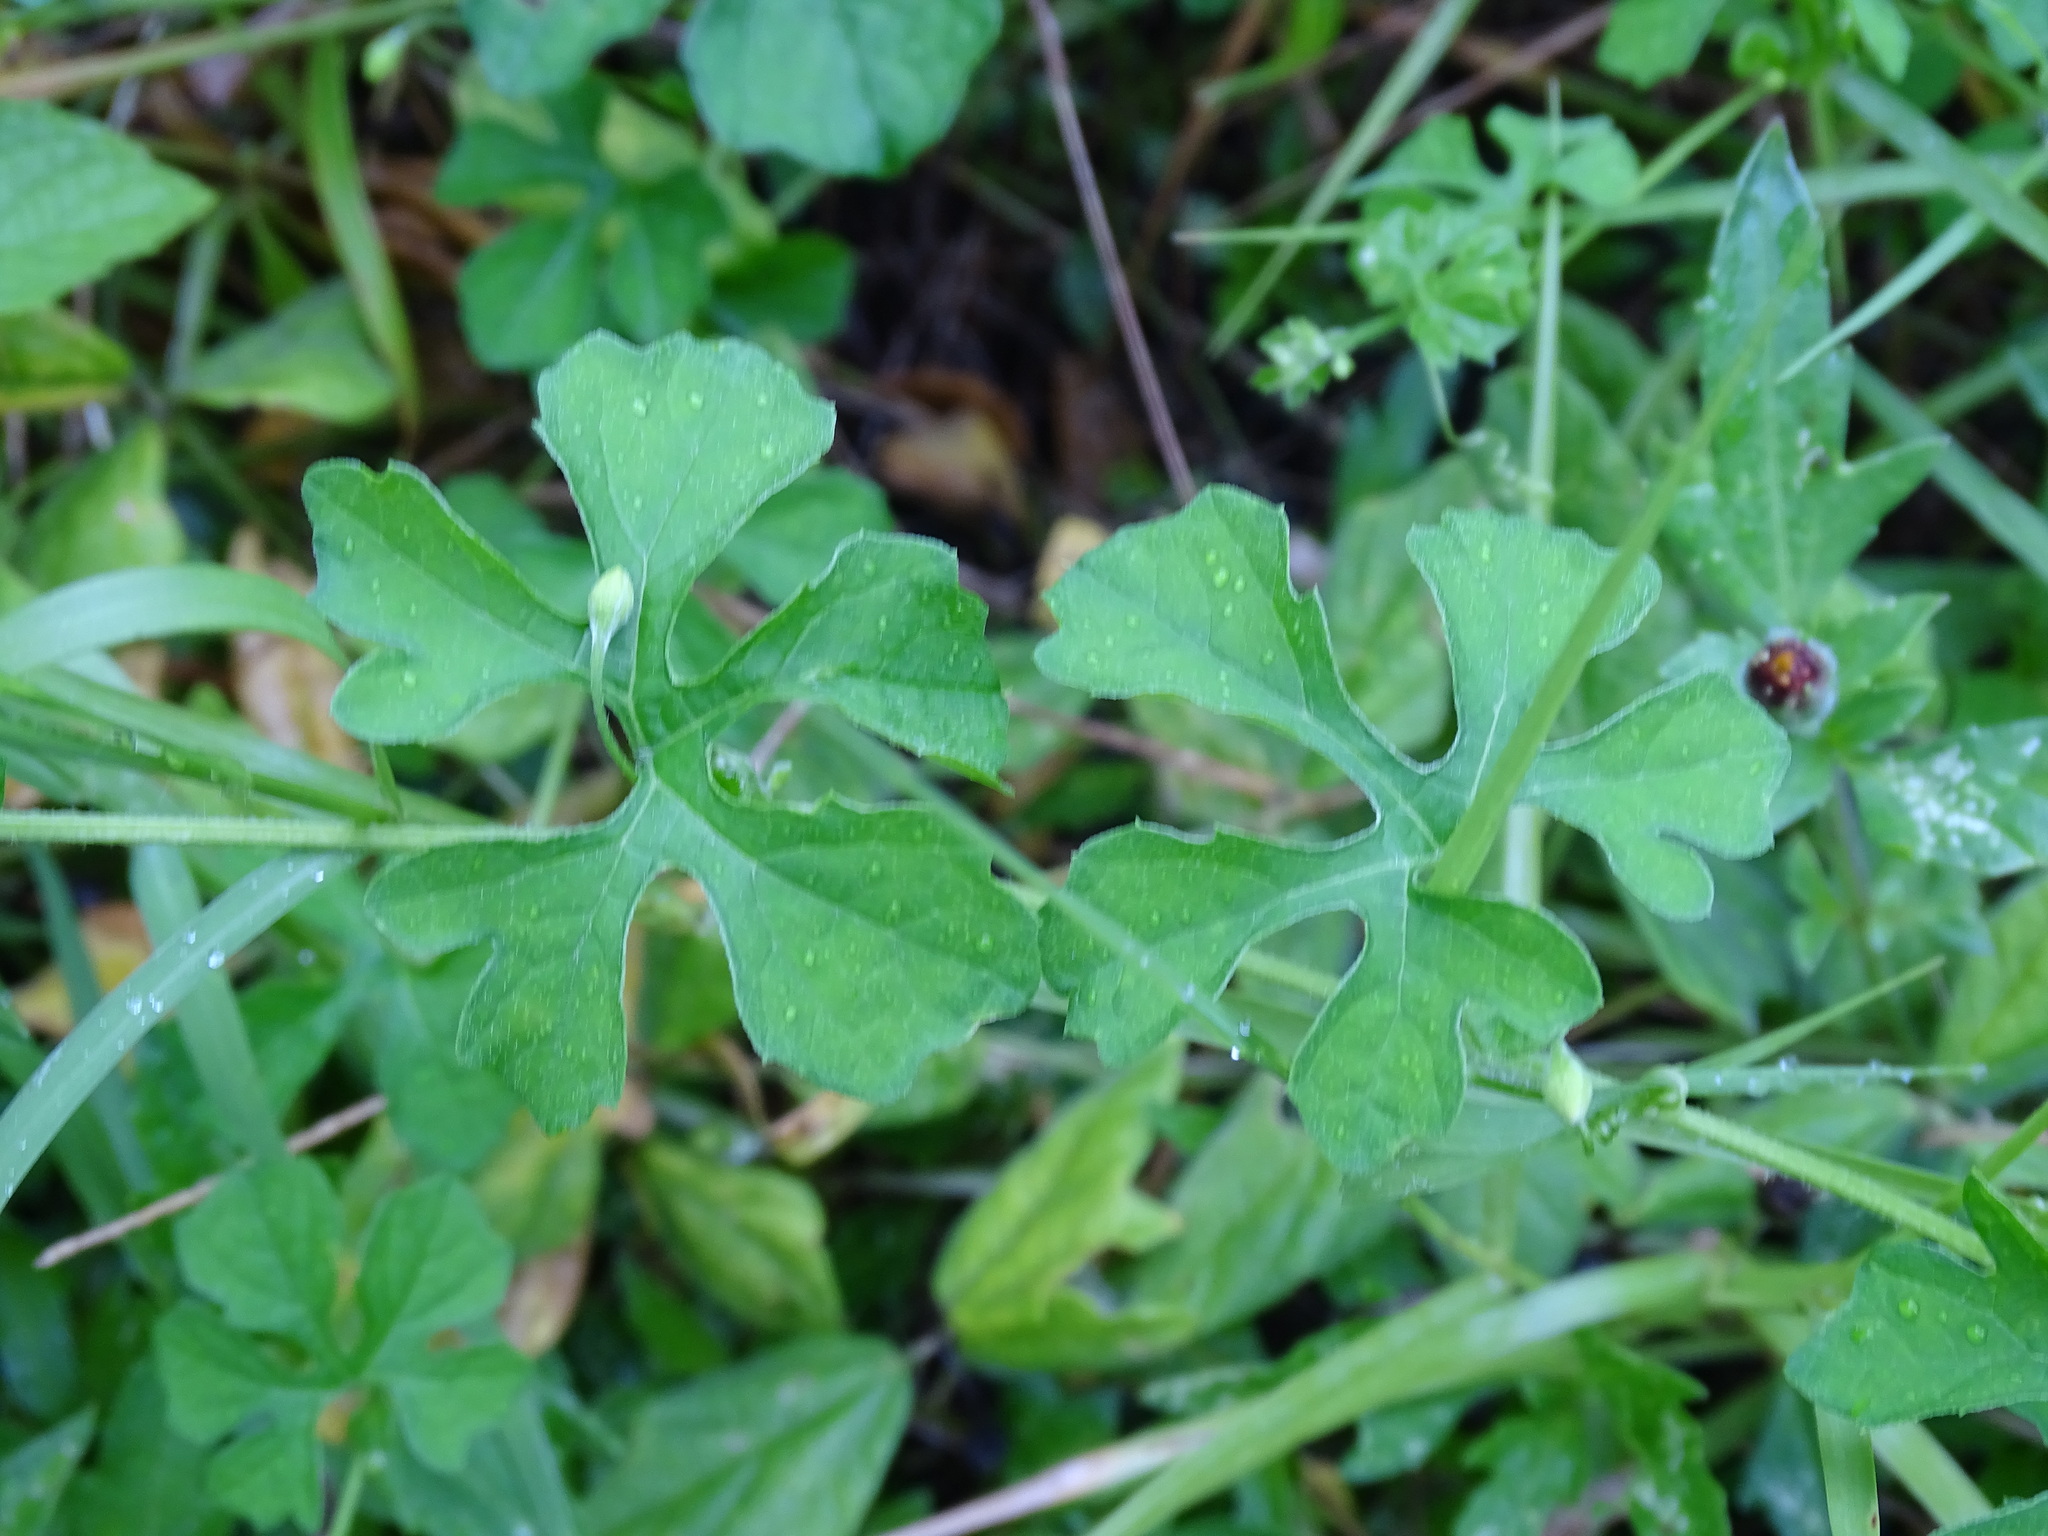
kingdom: Plantae
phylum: Tracheophyta
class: Magnoliopsida
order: Cucurbitales
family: Cucurbitaceae
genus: Momordica
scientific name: Momordica charantia
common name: Balsampear
